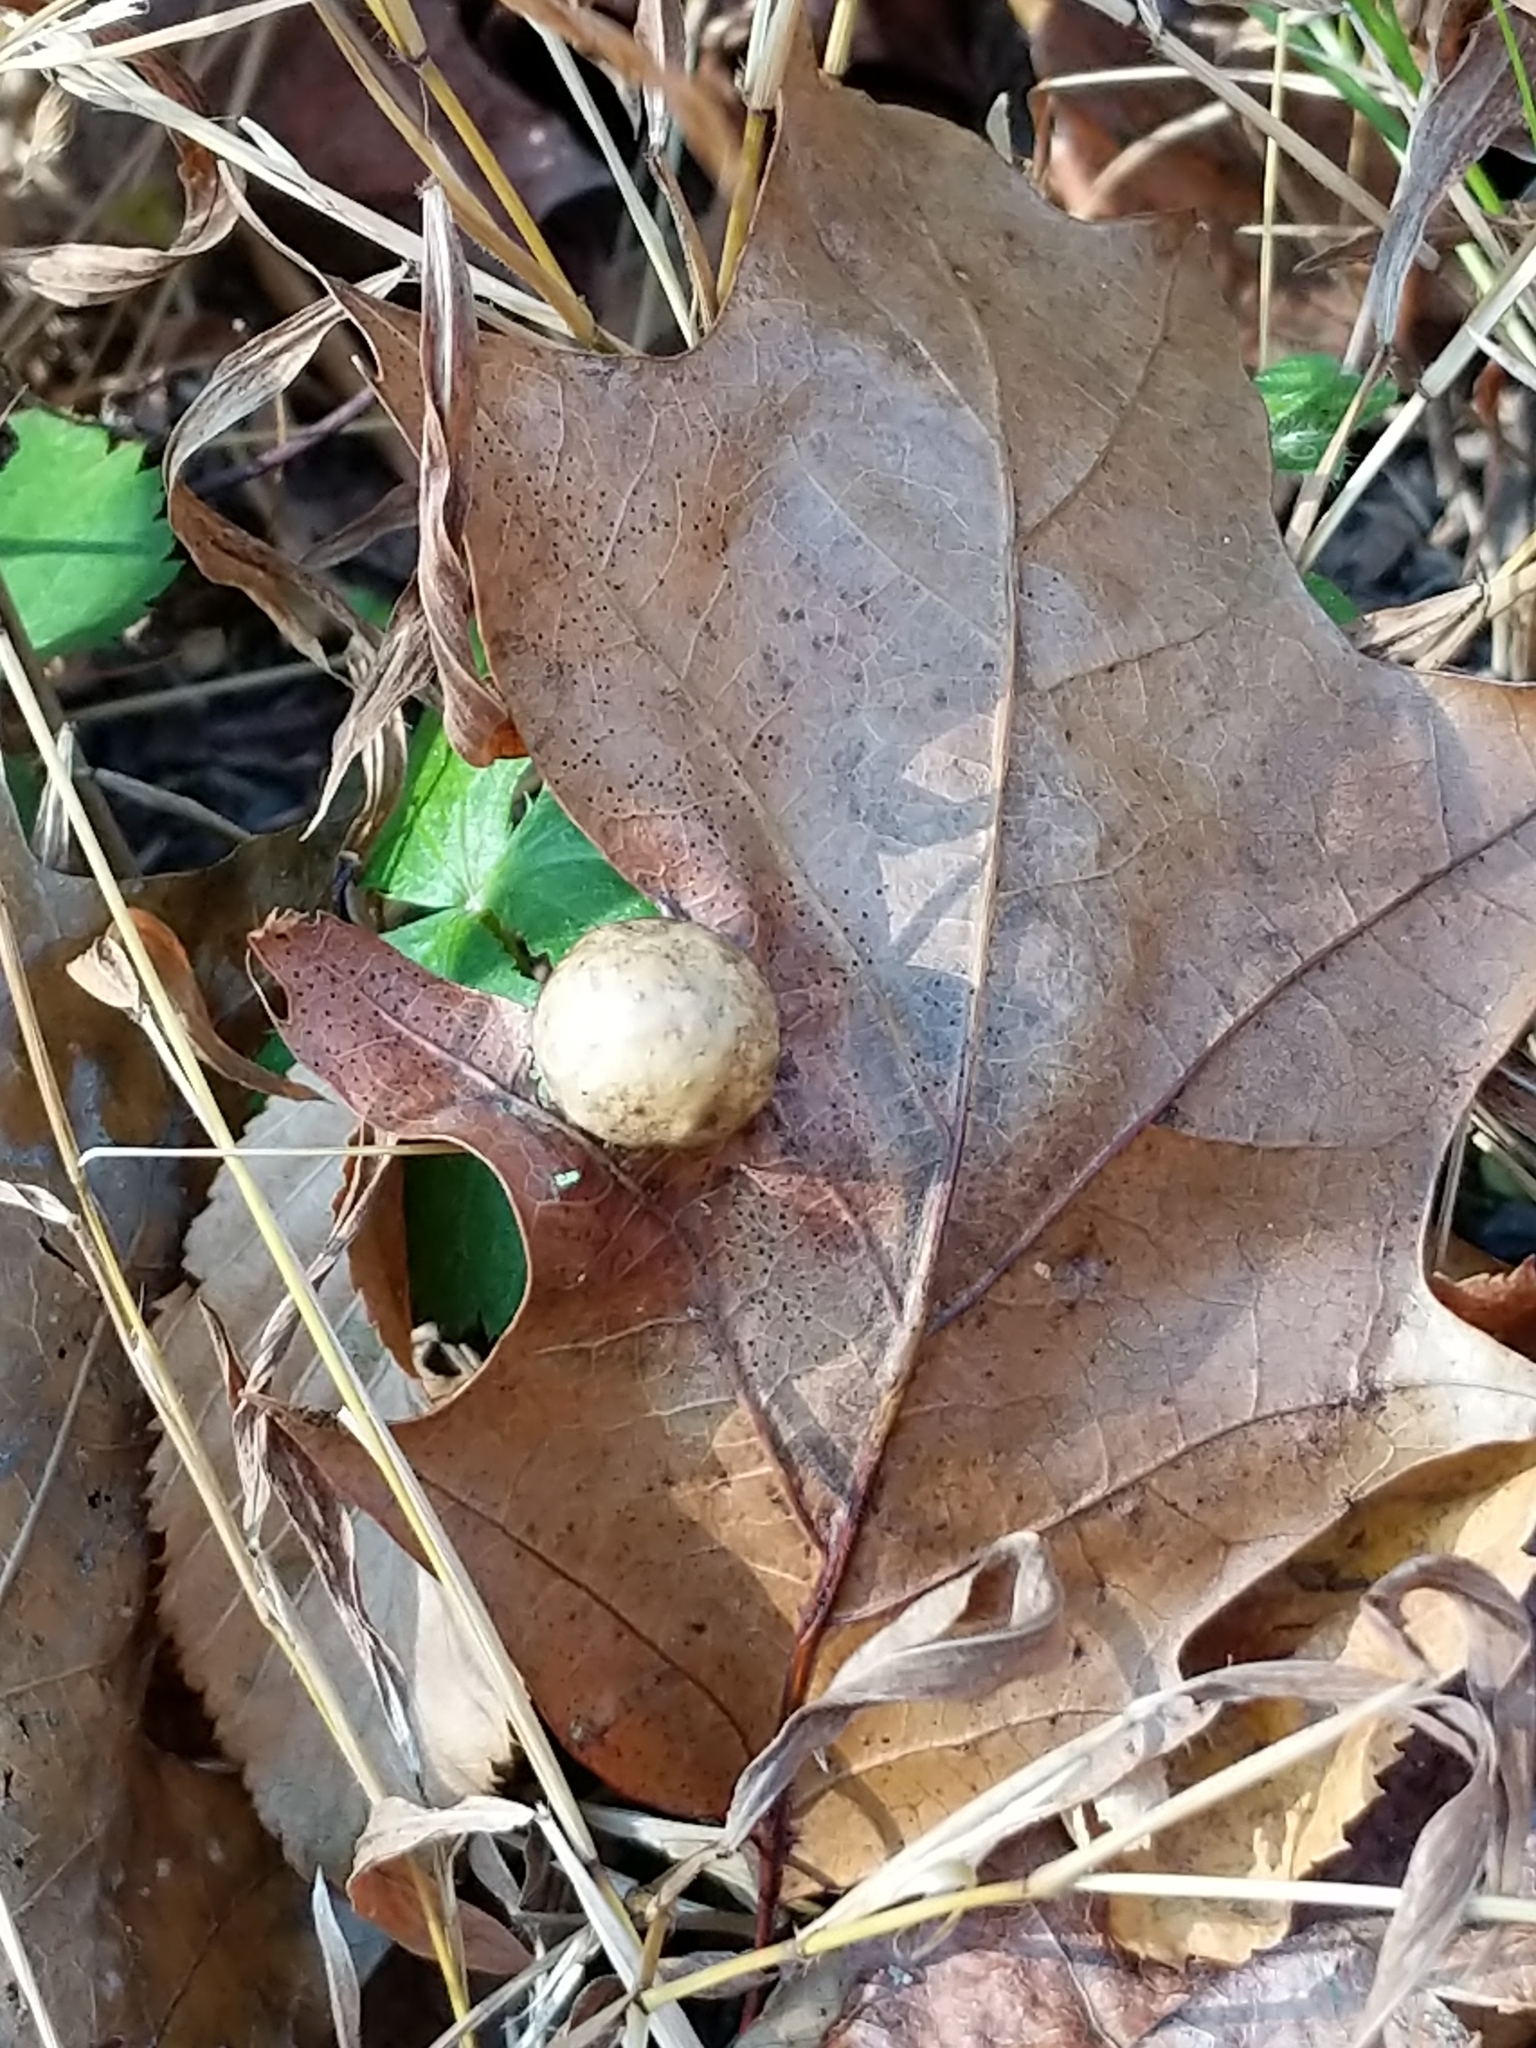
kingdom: Animalia
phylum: Arthropoda
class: Insecta
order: Hymenoptera
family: Cynipidae
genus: Amphibolips
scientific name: Amphibolips
